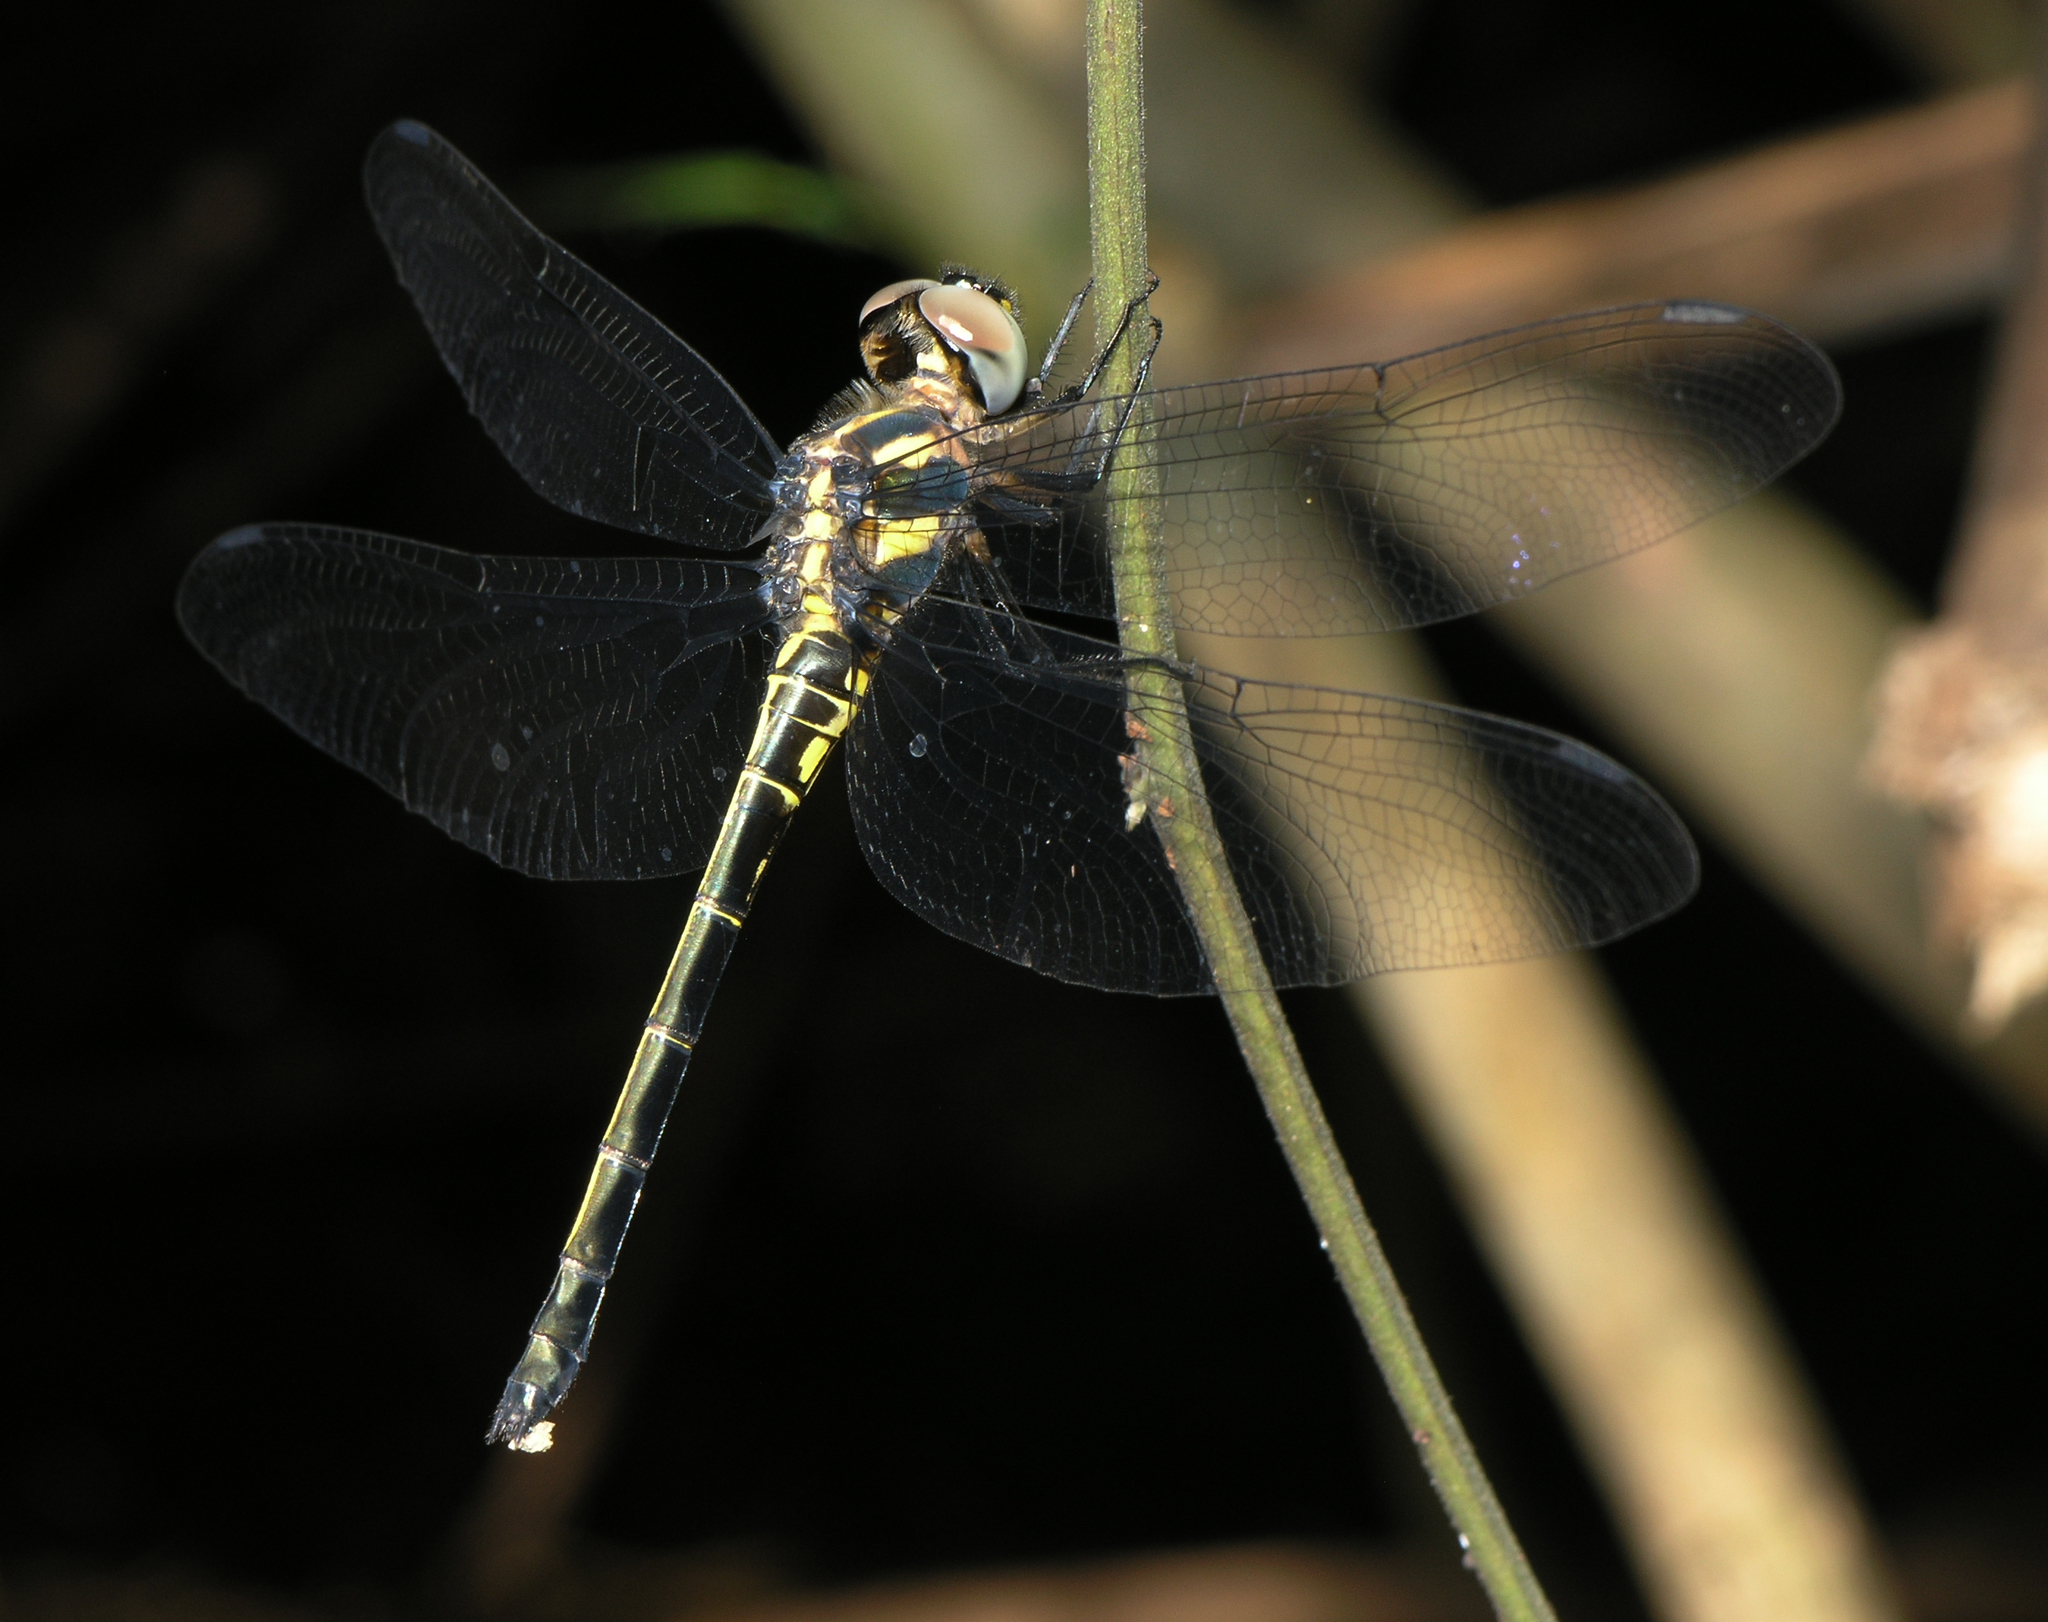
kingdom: Animalia
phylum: Arthropoda
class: Insecta
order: Odonata
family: Libellulidae
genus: Zygonyx
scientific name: Zygonyx iris
